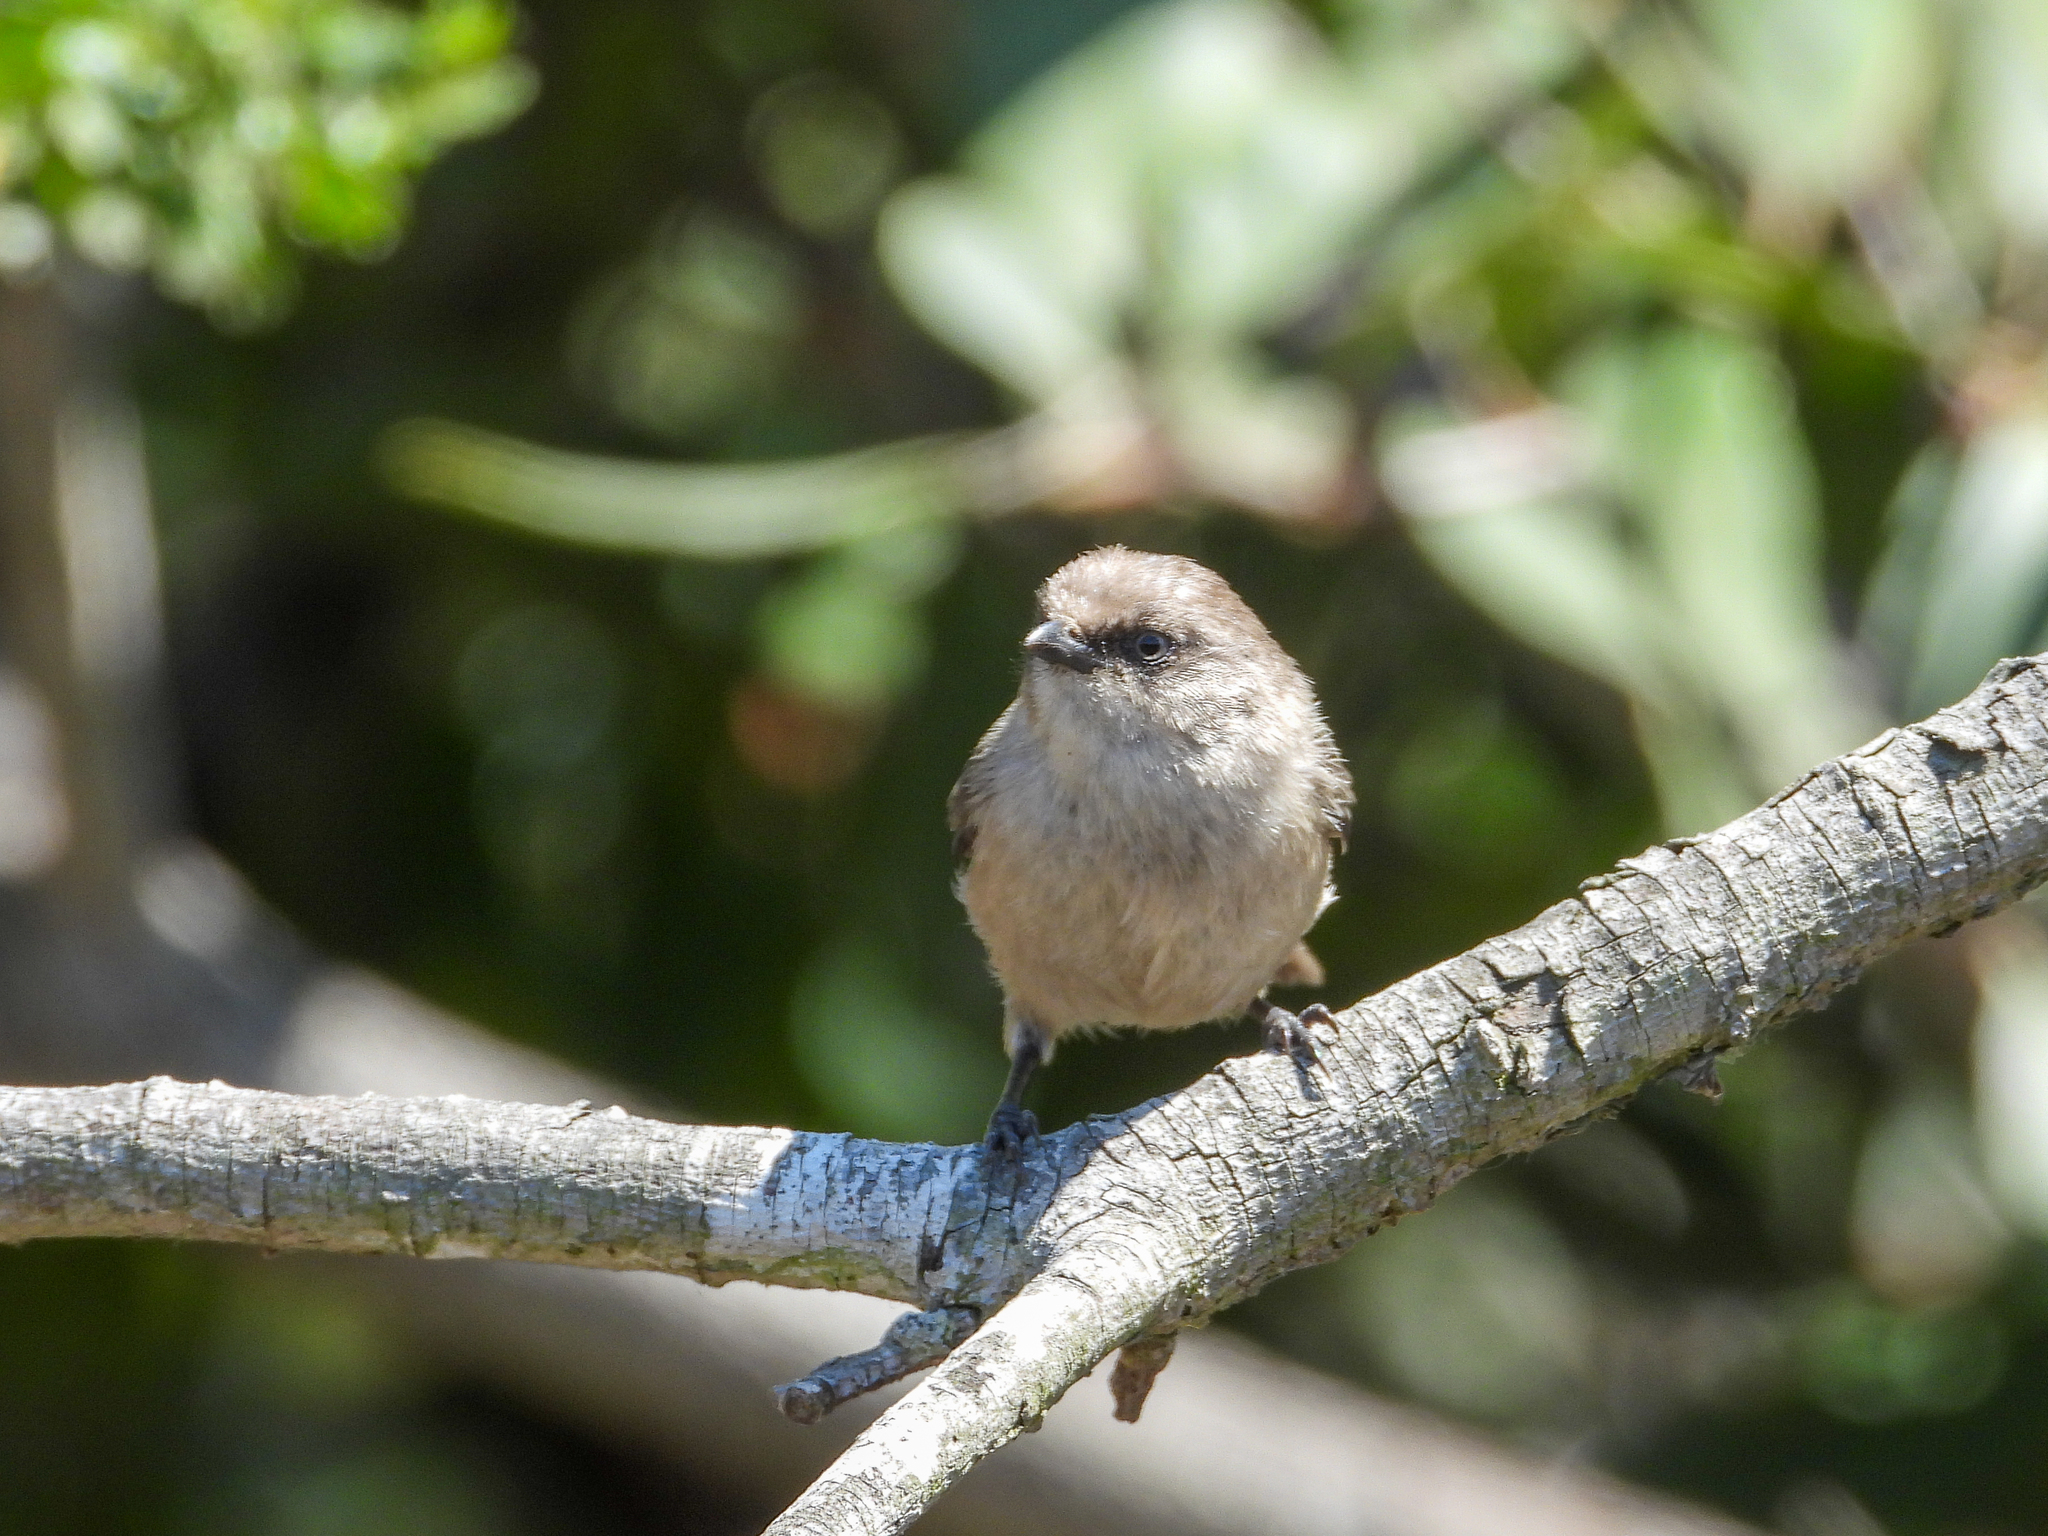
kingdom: Animalia
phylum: Chordata
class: Aves
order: Passeriformes
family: Aegithalidae
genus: Psaltriparus
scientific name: Psaltriparus minimus
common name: American bushtit
